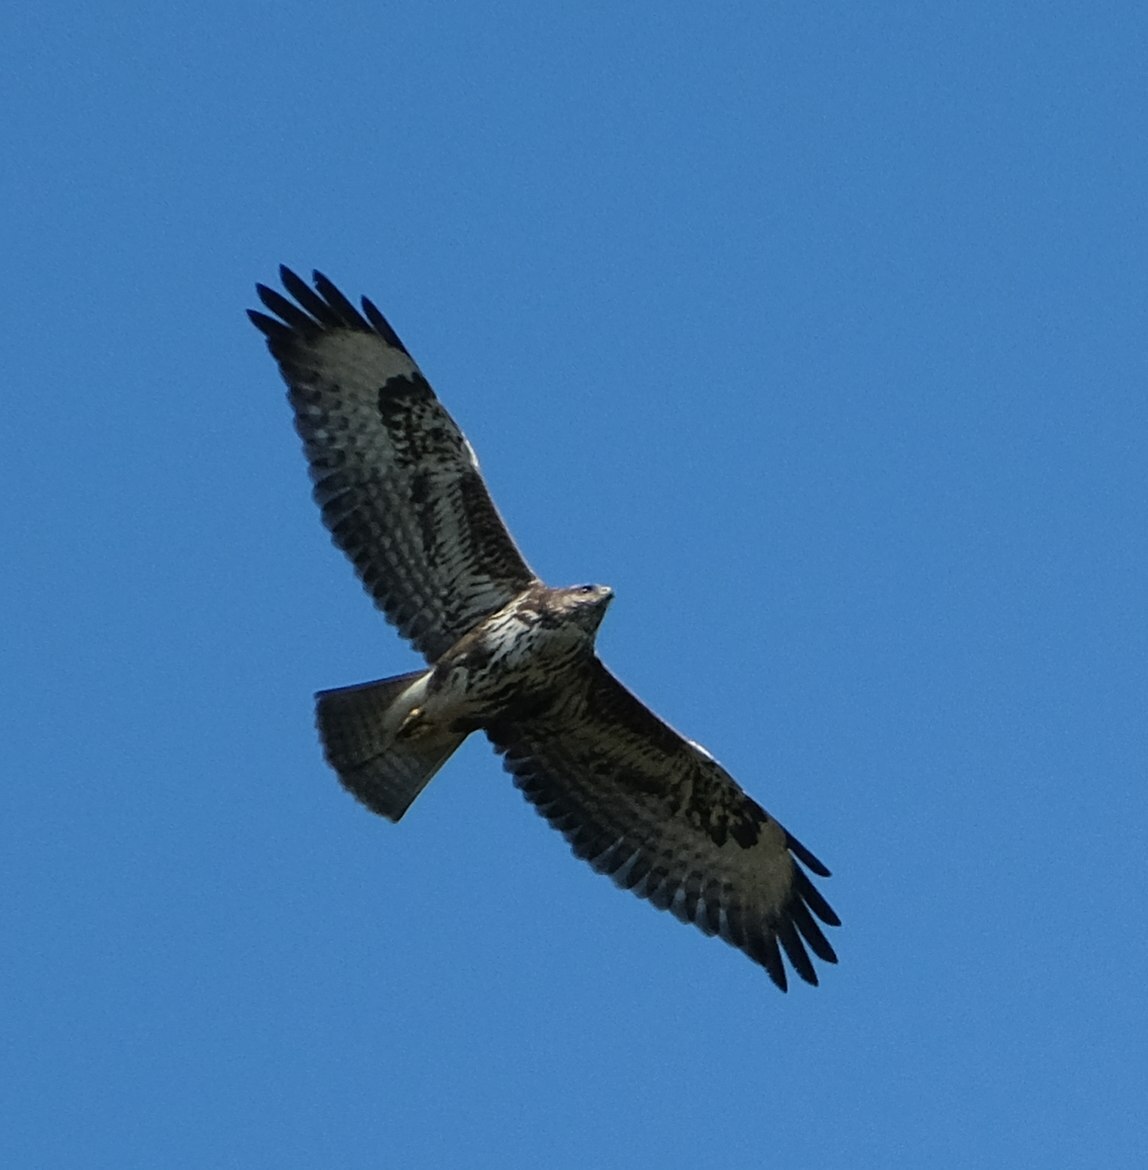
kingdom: Animalia
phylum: Chordata
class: Aves
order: Accipitriformes
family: Accipitridae
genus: Buteo
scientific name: Buteo buteo
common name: Common buzzard
